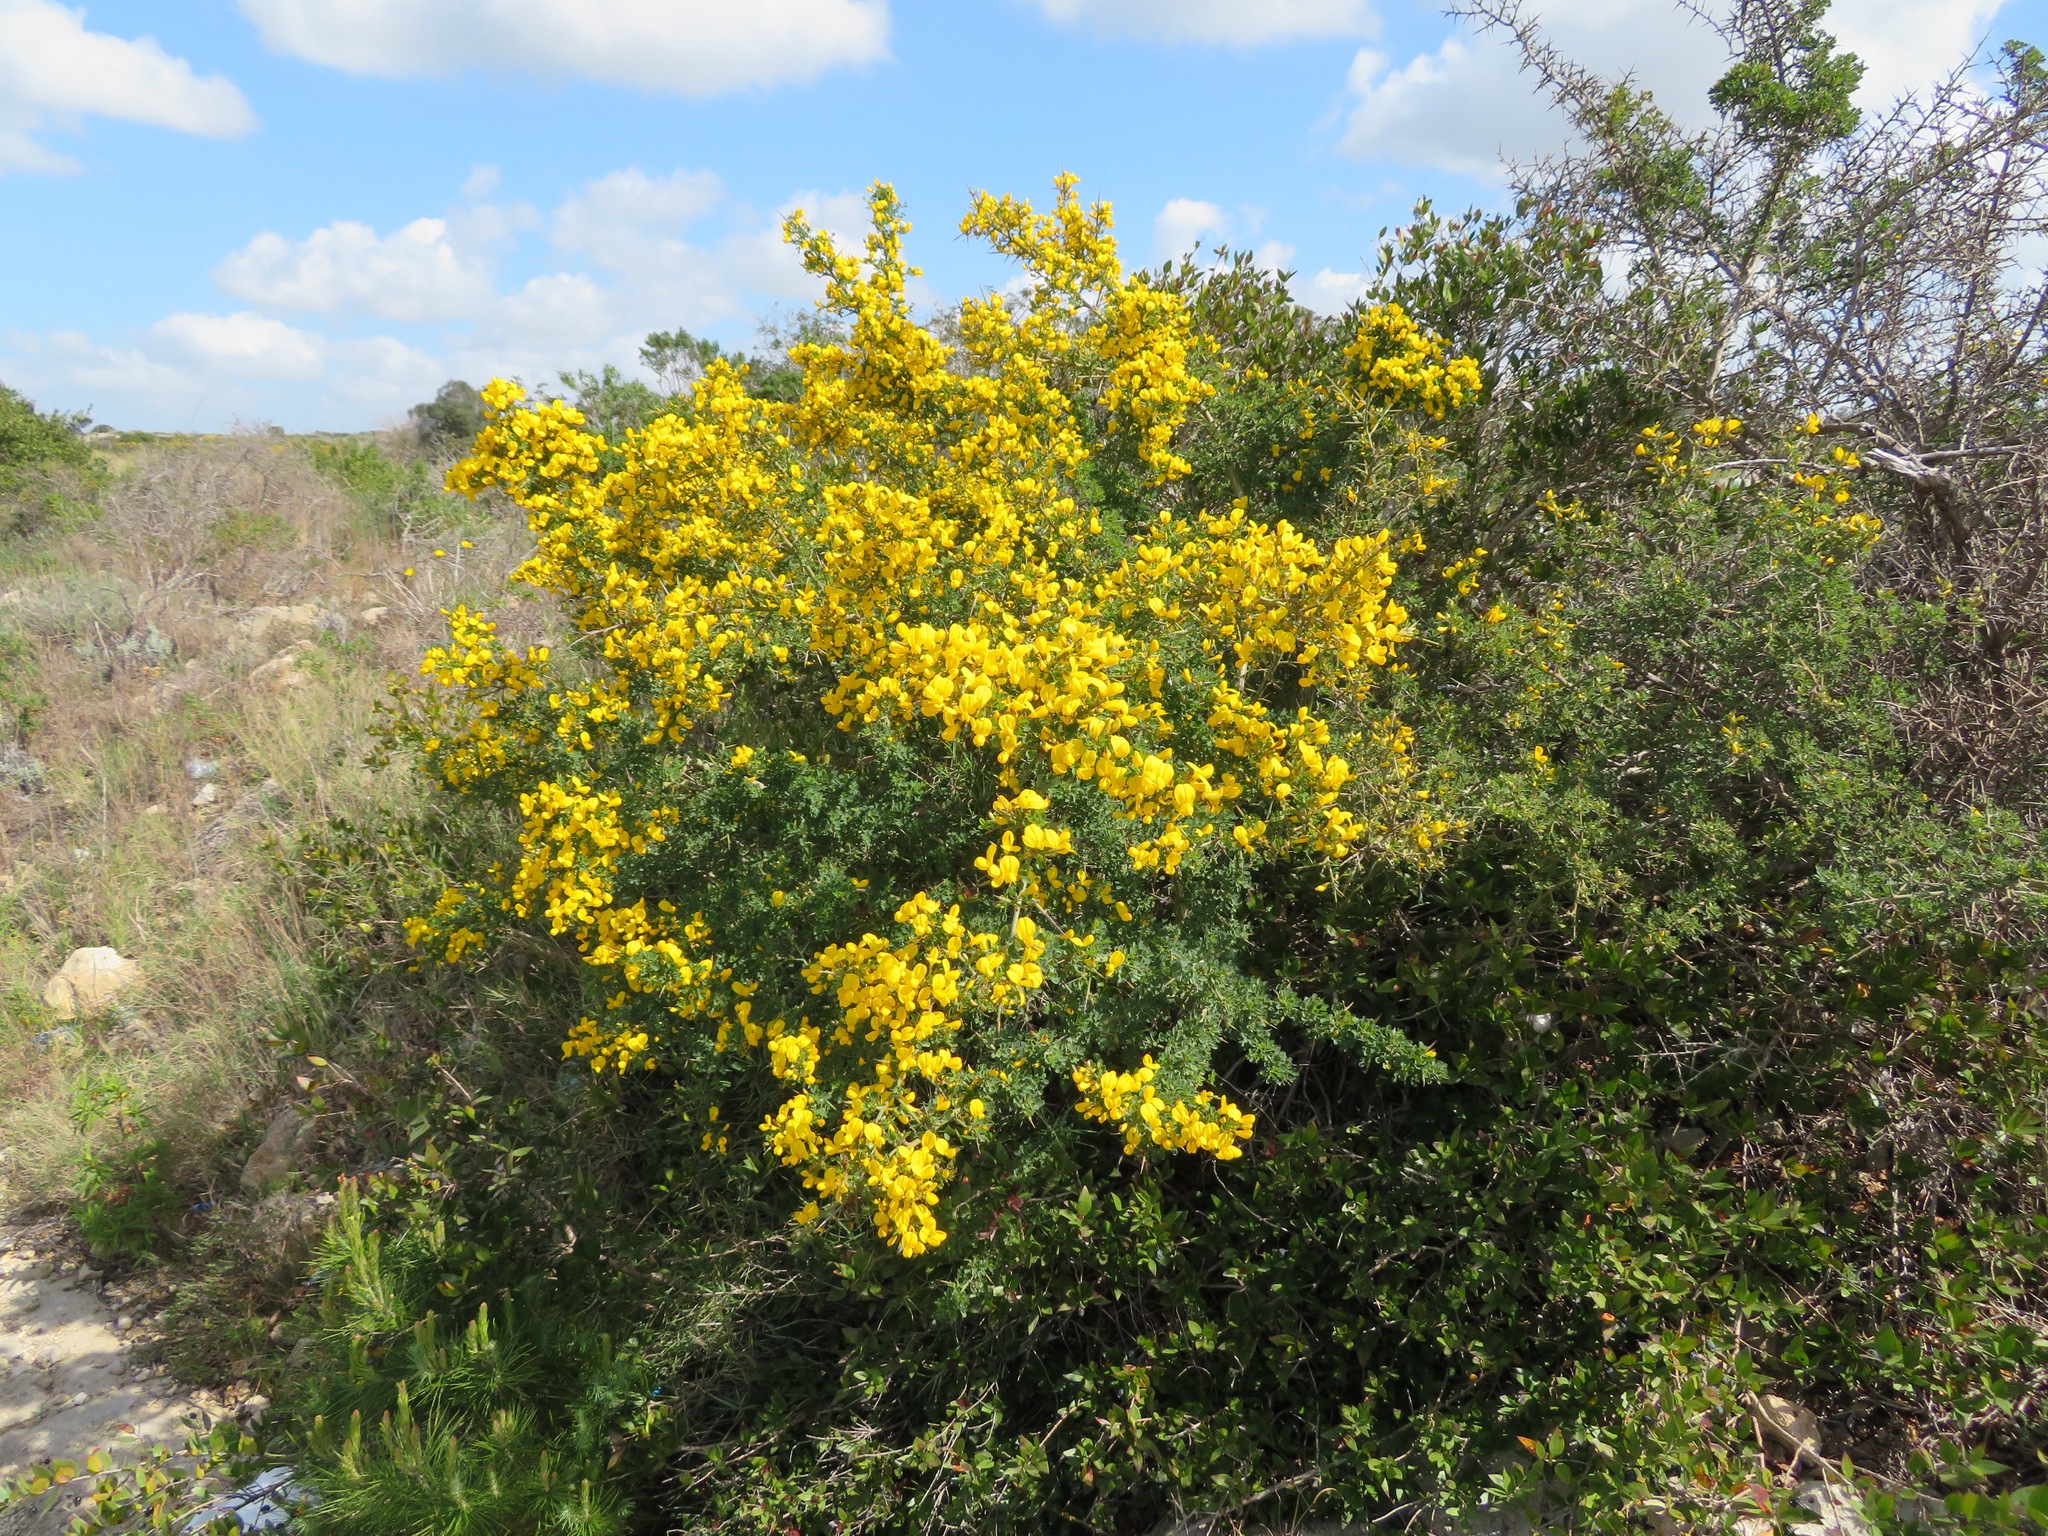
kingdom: Plantae
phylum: Tracheophyta
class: Magnoliopsida
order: Fabales
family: Fabaceae
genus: Calicotome
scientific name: Calicotome villosa
